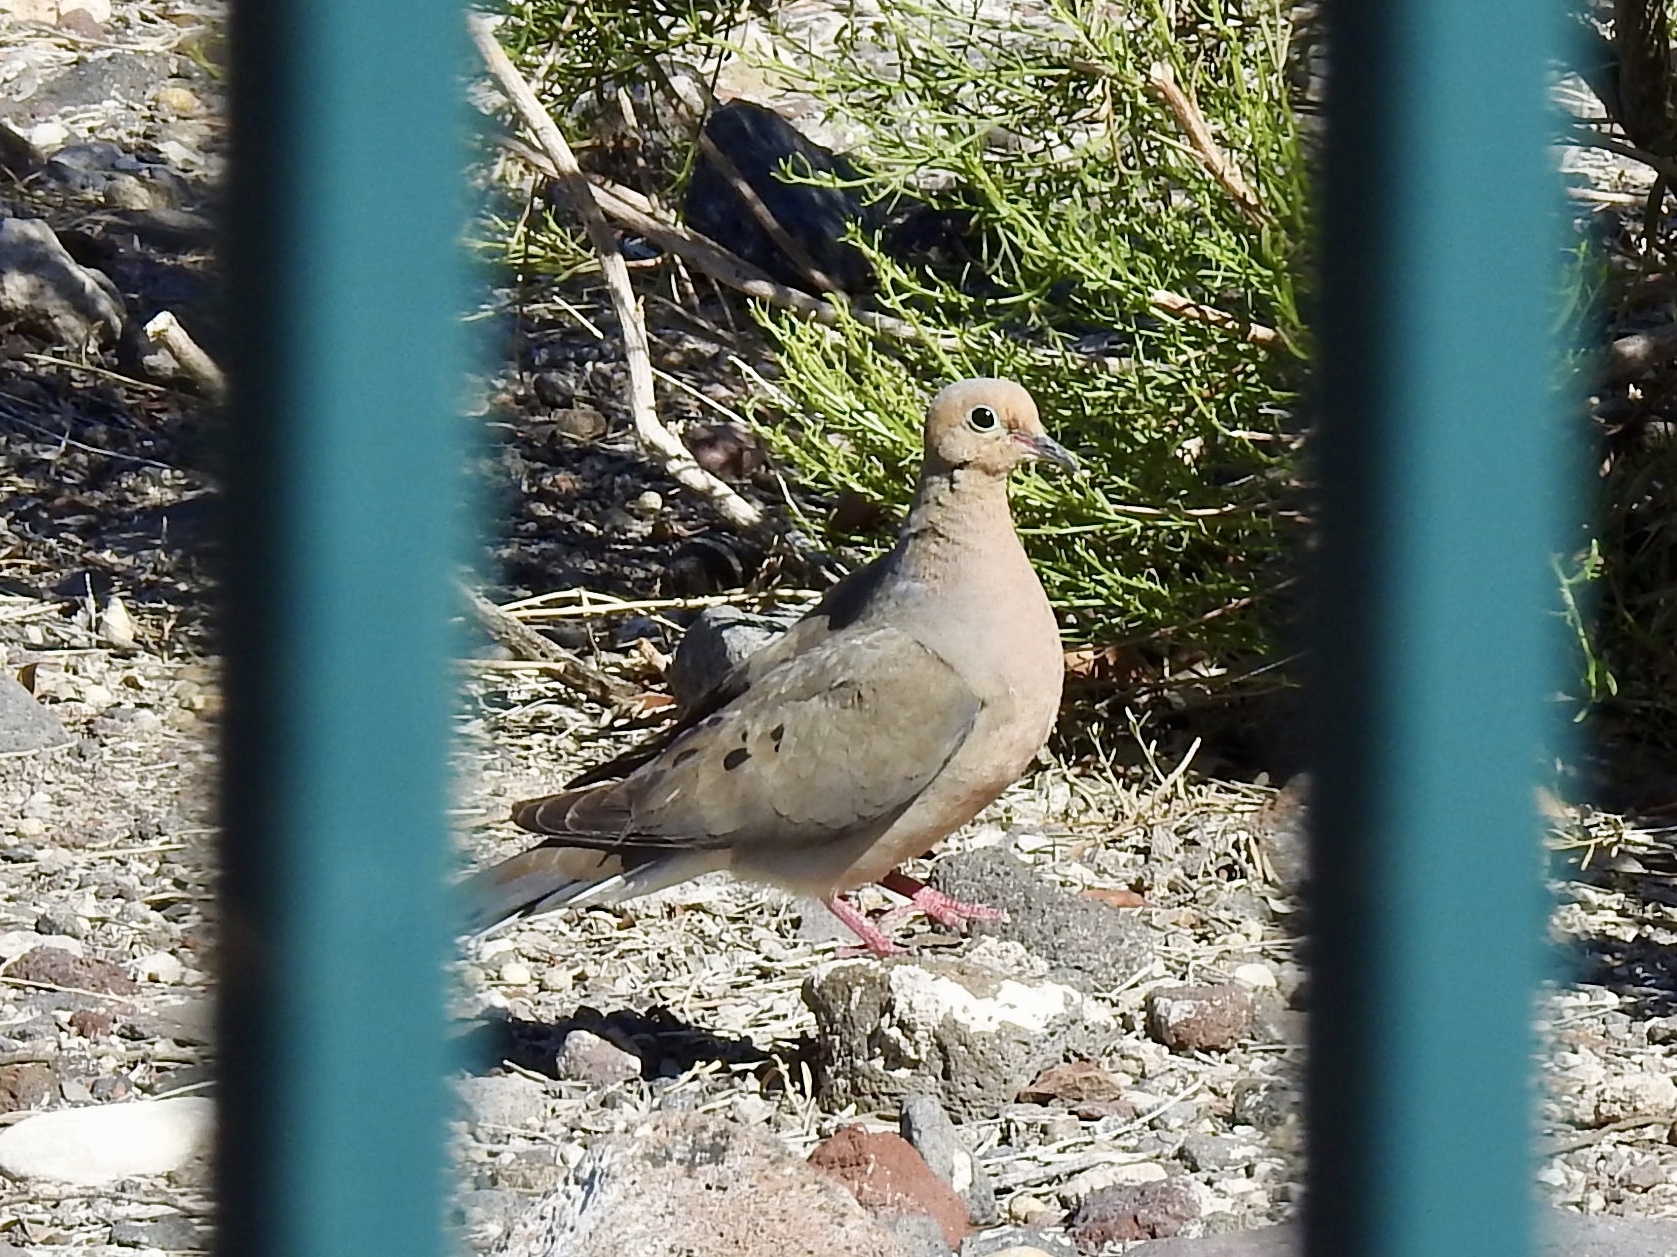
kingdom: Animalia
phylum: Chordata
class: Aves
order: Columbiformes
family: Columbidae
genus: Zenaida
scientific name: Zenaida macroura
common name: Mourning dove
